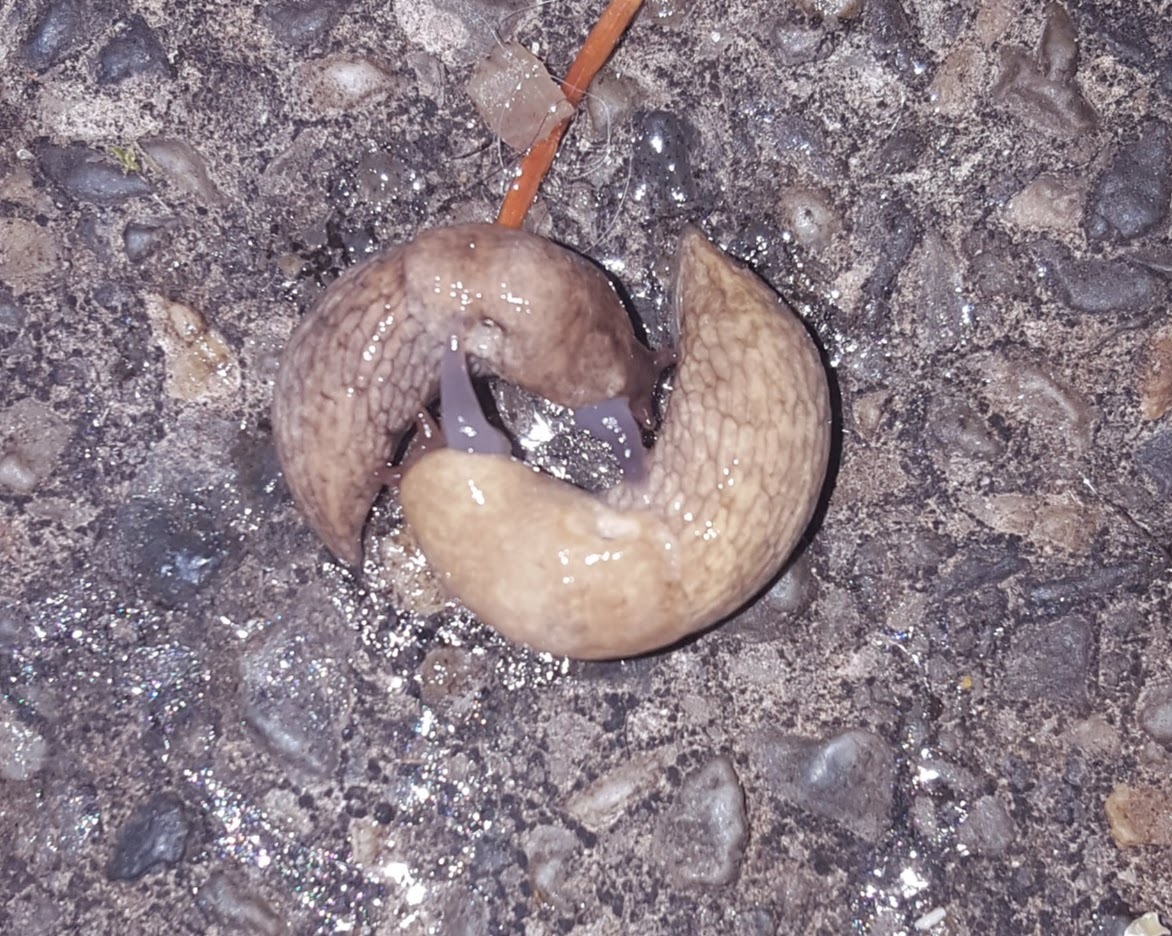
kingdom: Animalia
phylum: Mollusca
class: Gastropoda
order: Stylommatophora
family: Agriolimacidae
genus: Deroceras
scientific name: Deroceras reticulatum
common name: Gray field slug
